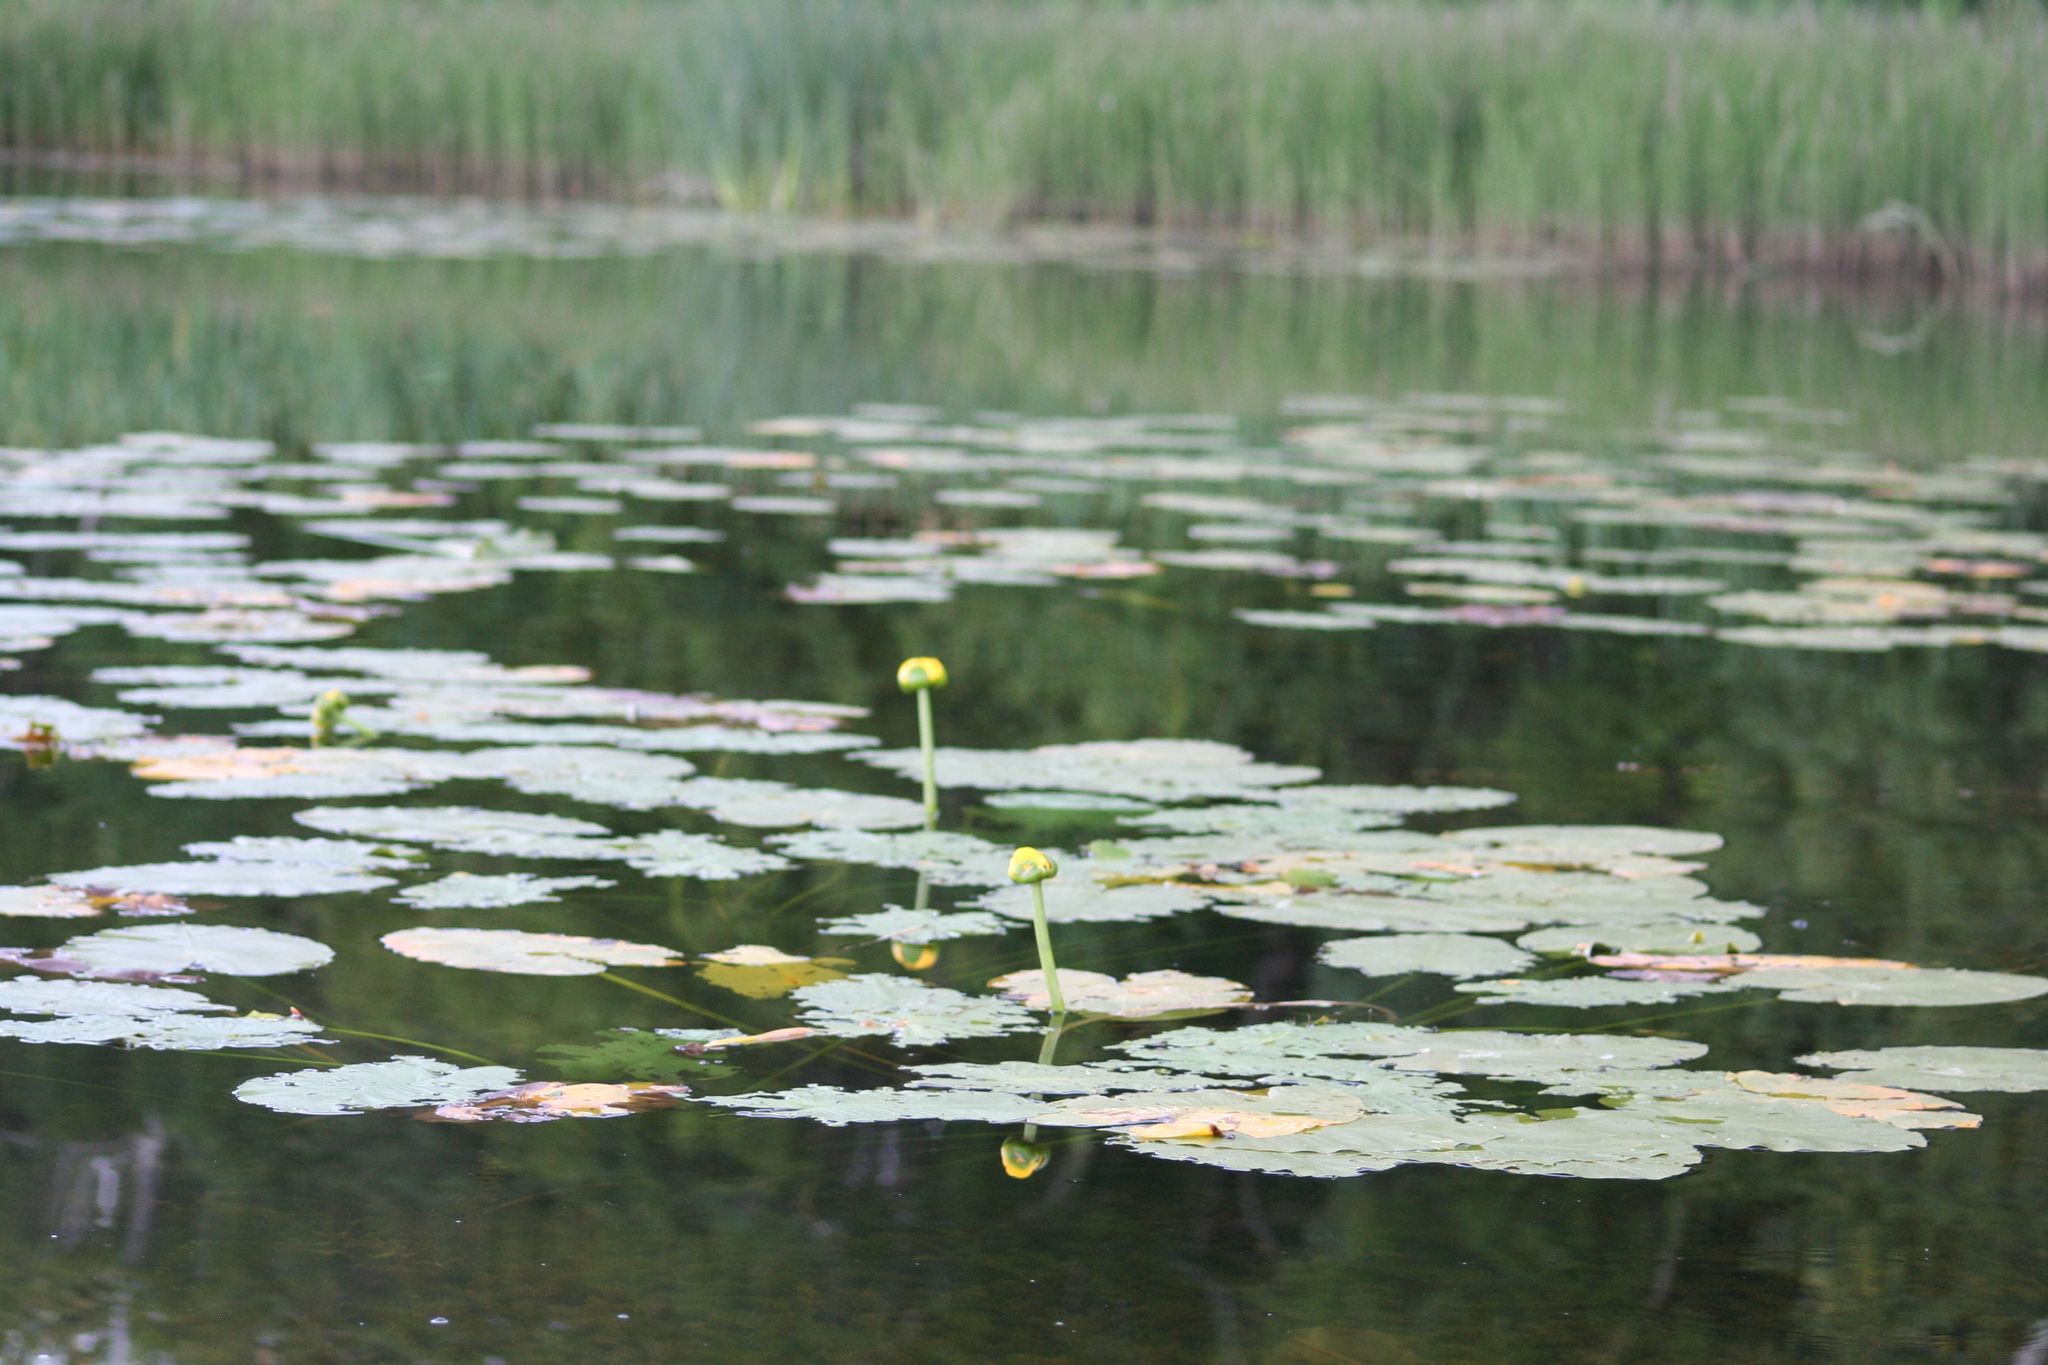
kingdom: Plantae
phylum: Tracheophyta
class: Magnoliopsida
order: Nymphaeales
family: Nymphaeaceae
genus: Nuphar
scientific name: Nuphar variegata
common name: Beaver-root
